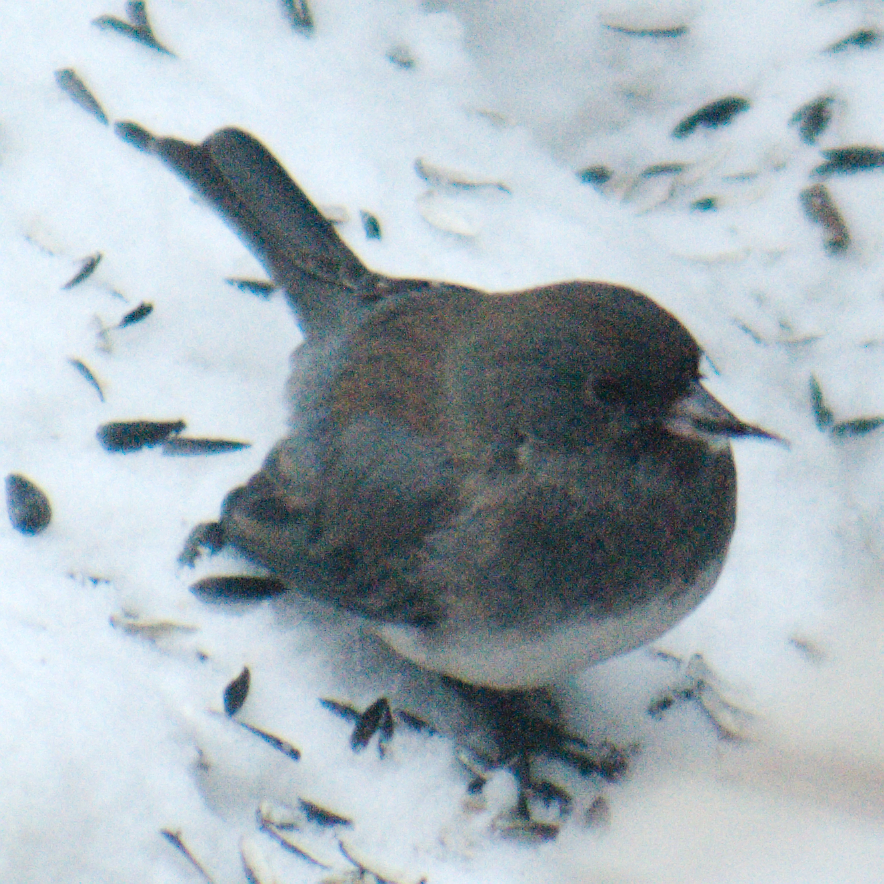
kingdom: Animalia
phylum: Chordata
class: Aves
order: Passeriformes
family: Passerellidae
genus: Junco
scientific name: Junco hyemalis
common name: Dark-eyed junco
